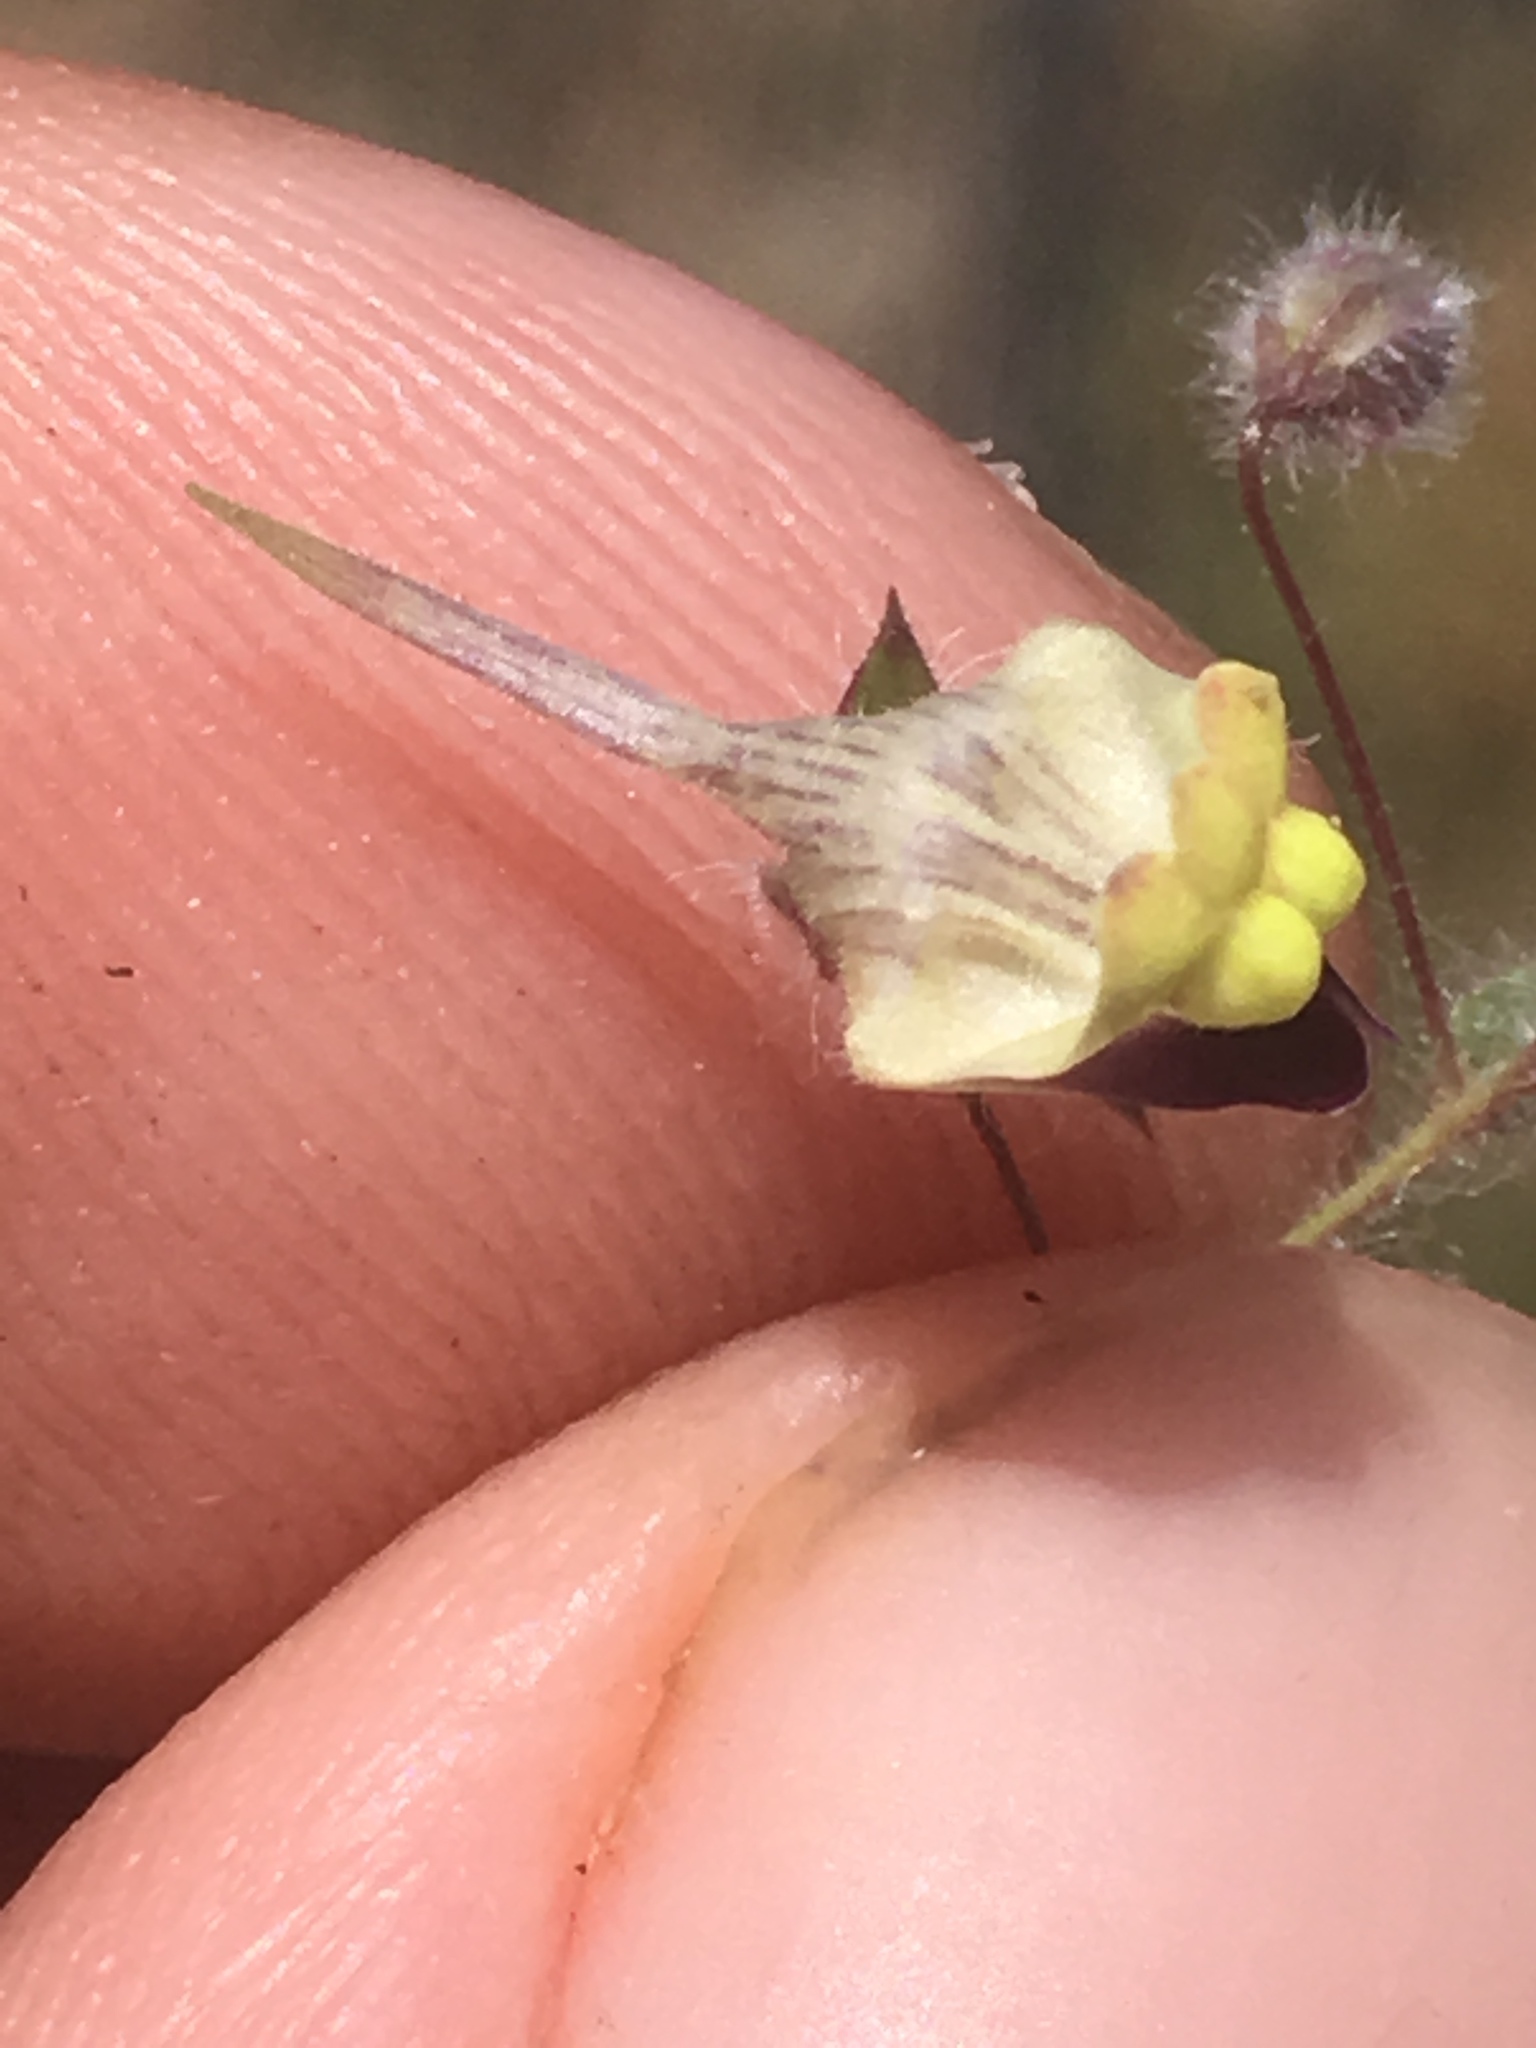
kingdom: Plantae
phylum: Tracheophyta
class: Magnoliopsida
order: Lamiales
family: Plantaginaceae
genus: Kickxia
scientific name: Kickxia elatine
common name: Sharp-leaved fluellen
